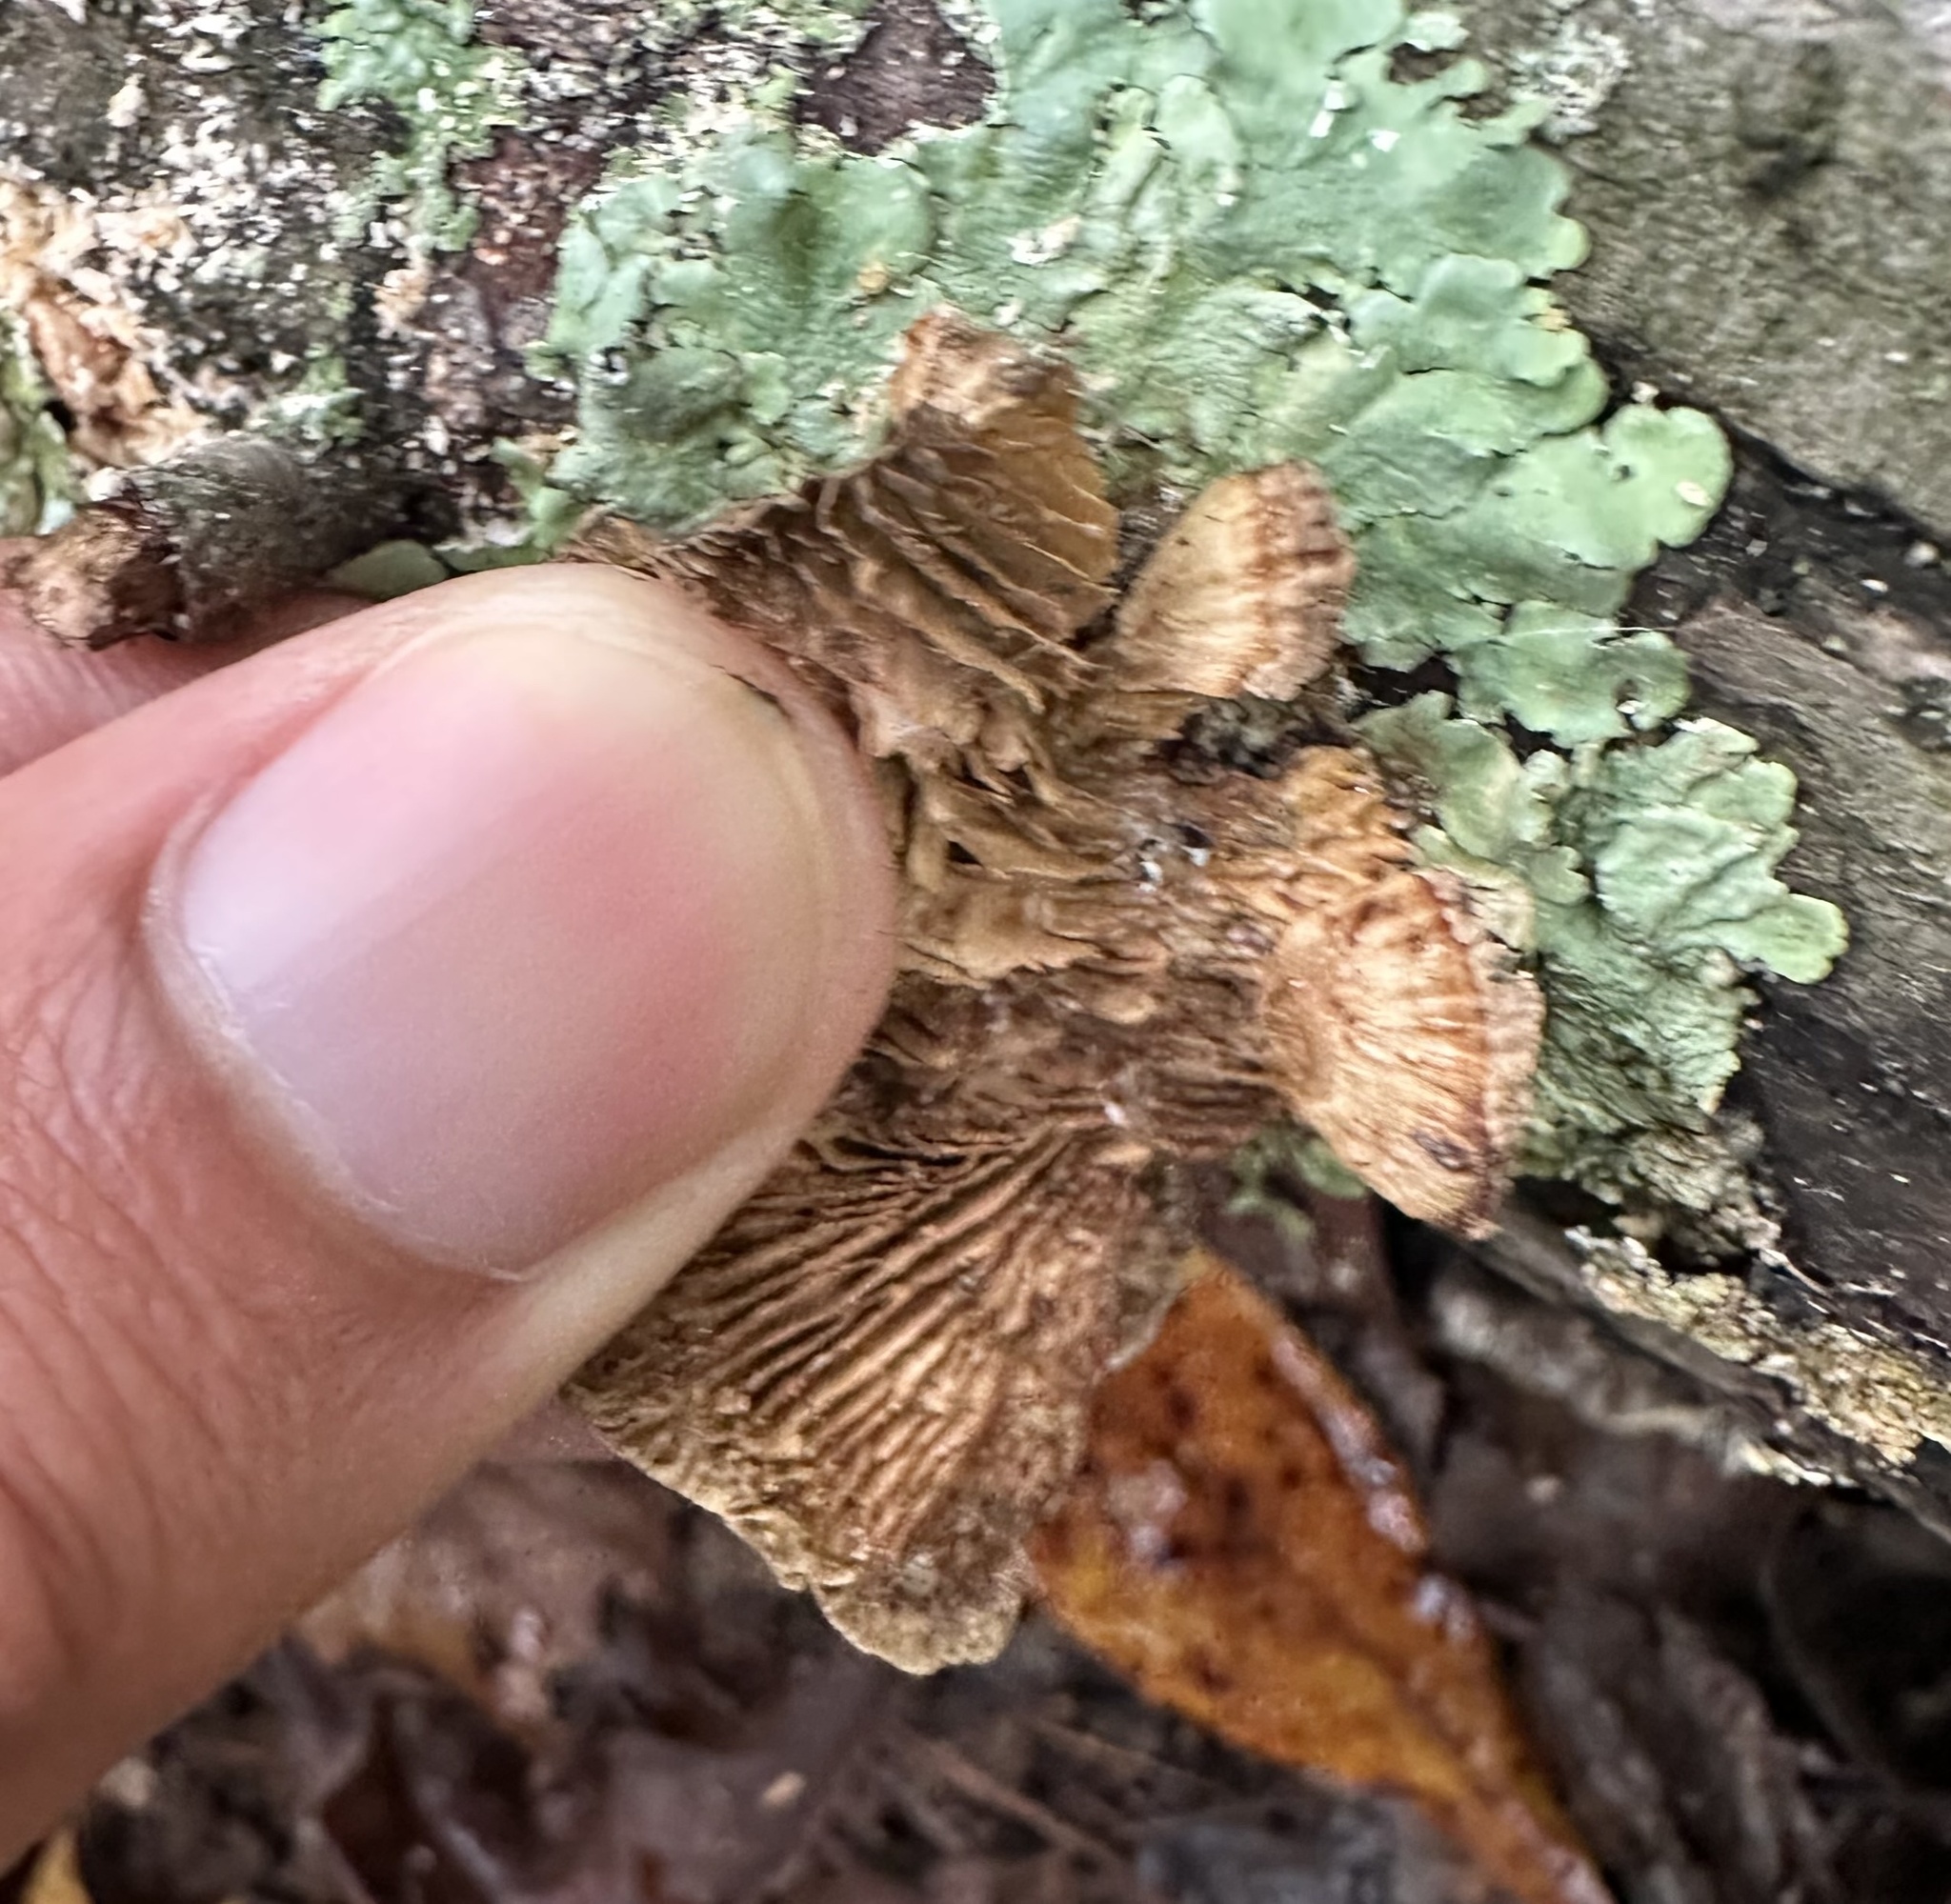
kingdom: Fungi
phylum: Basidiomycota
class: Agaricomycetes
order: Polyporales
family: Polyporaceae
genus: Daedaleopsis
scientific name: Daedaleopsis confragosa
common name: Blushing bracket
